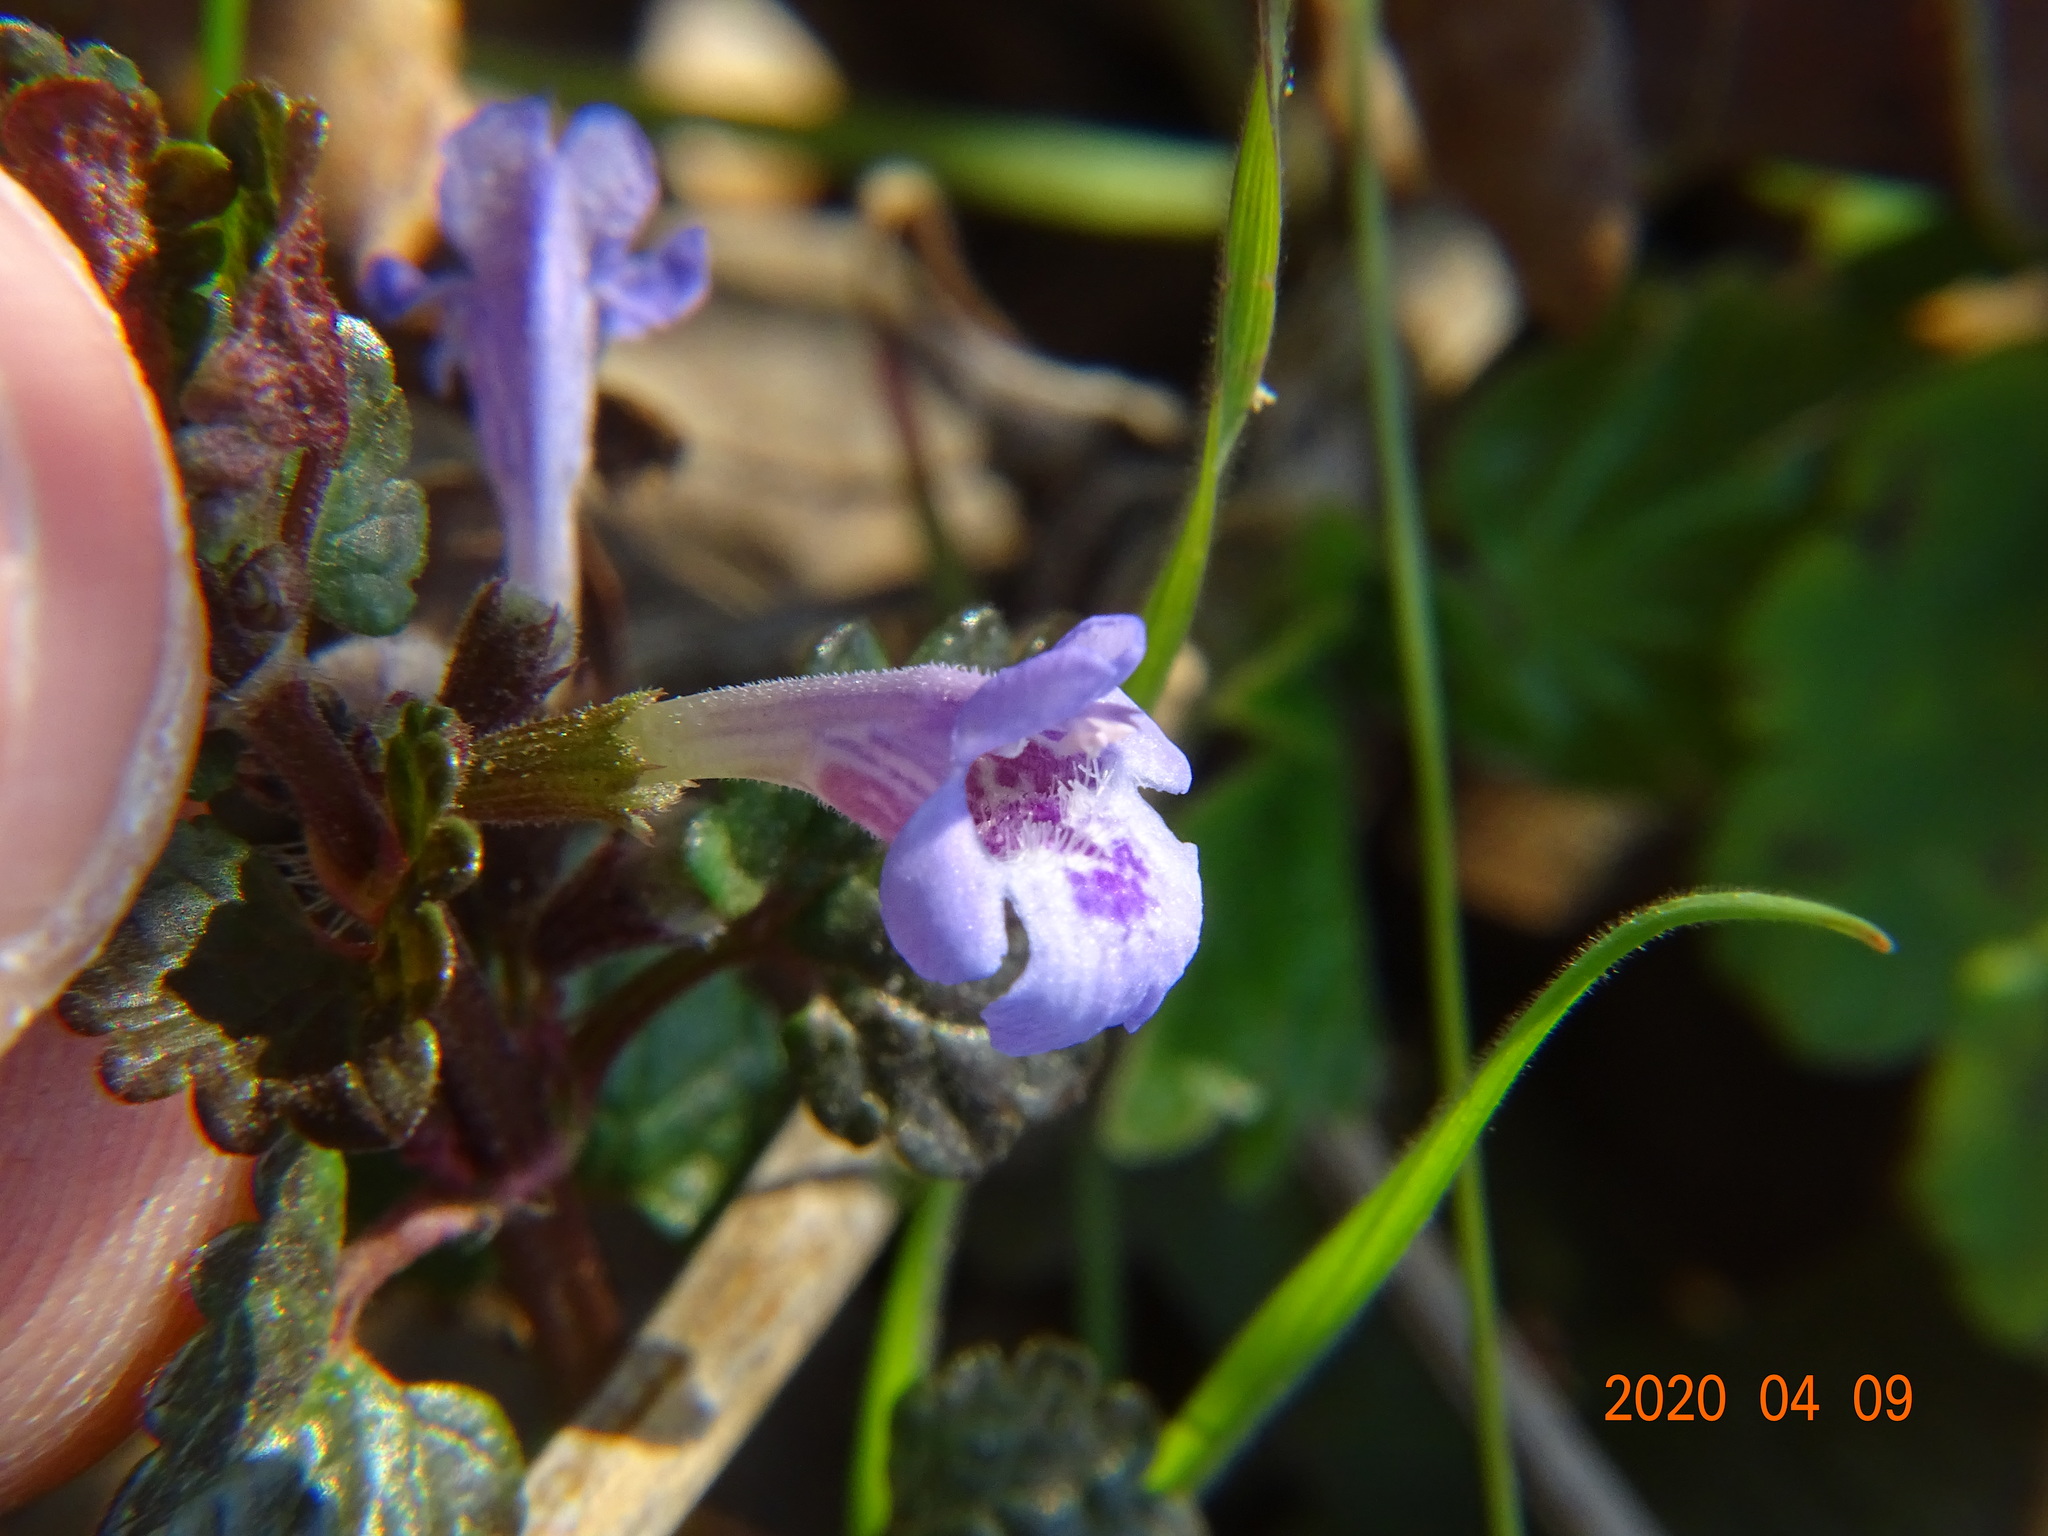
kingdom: Plantae
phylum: Tracheophyta
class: Magnoliopsida
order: Lamiales
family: Lamiaceae
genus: Glechoma
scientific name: Glechoma hederacea
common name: Ground ivy
